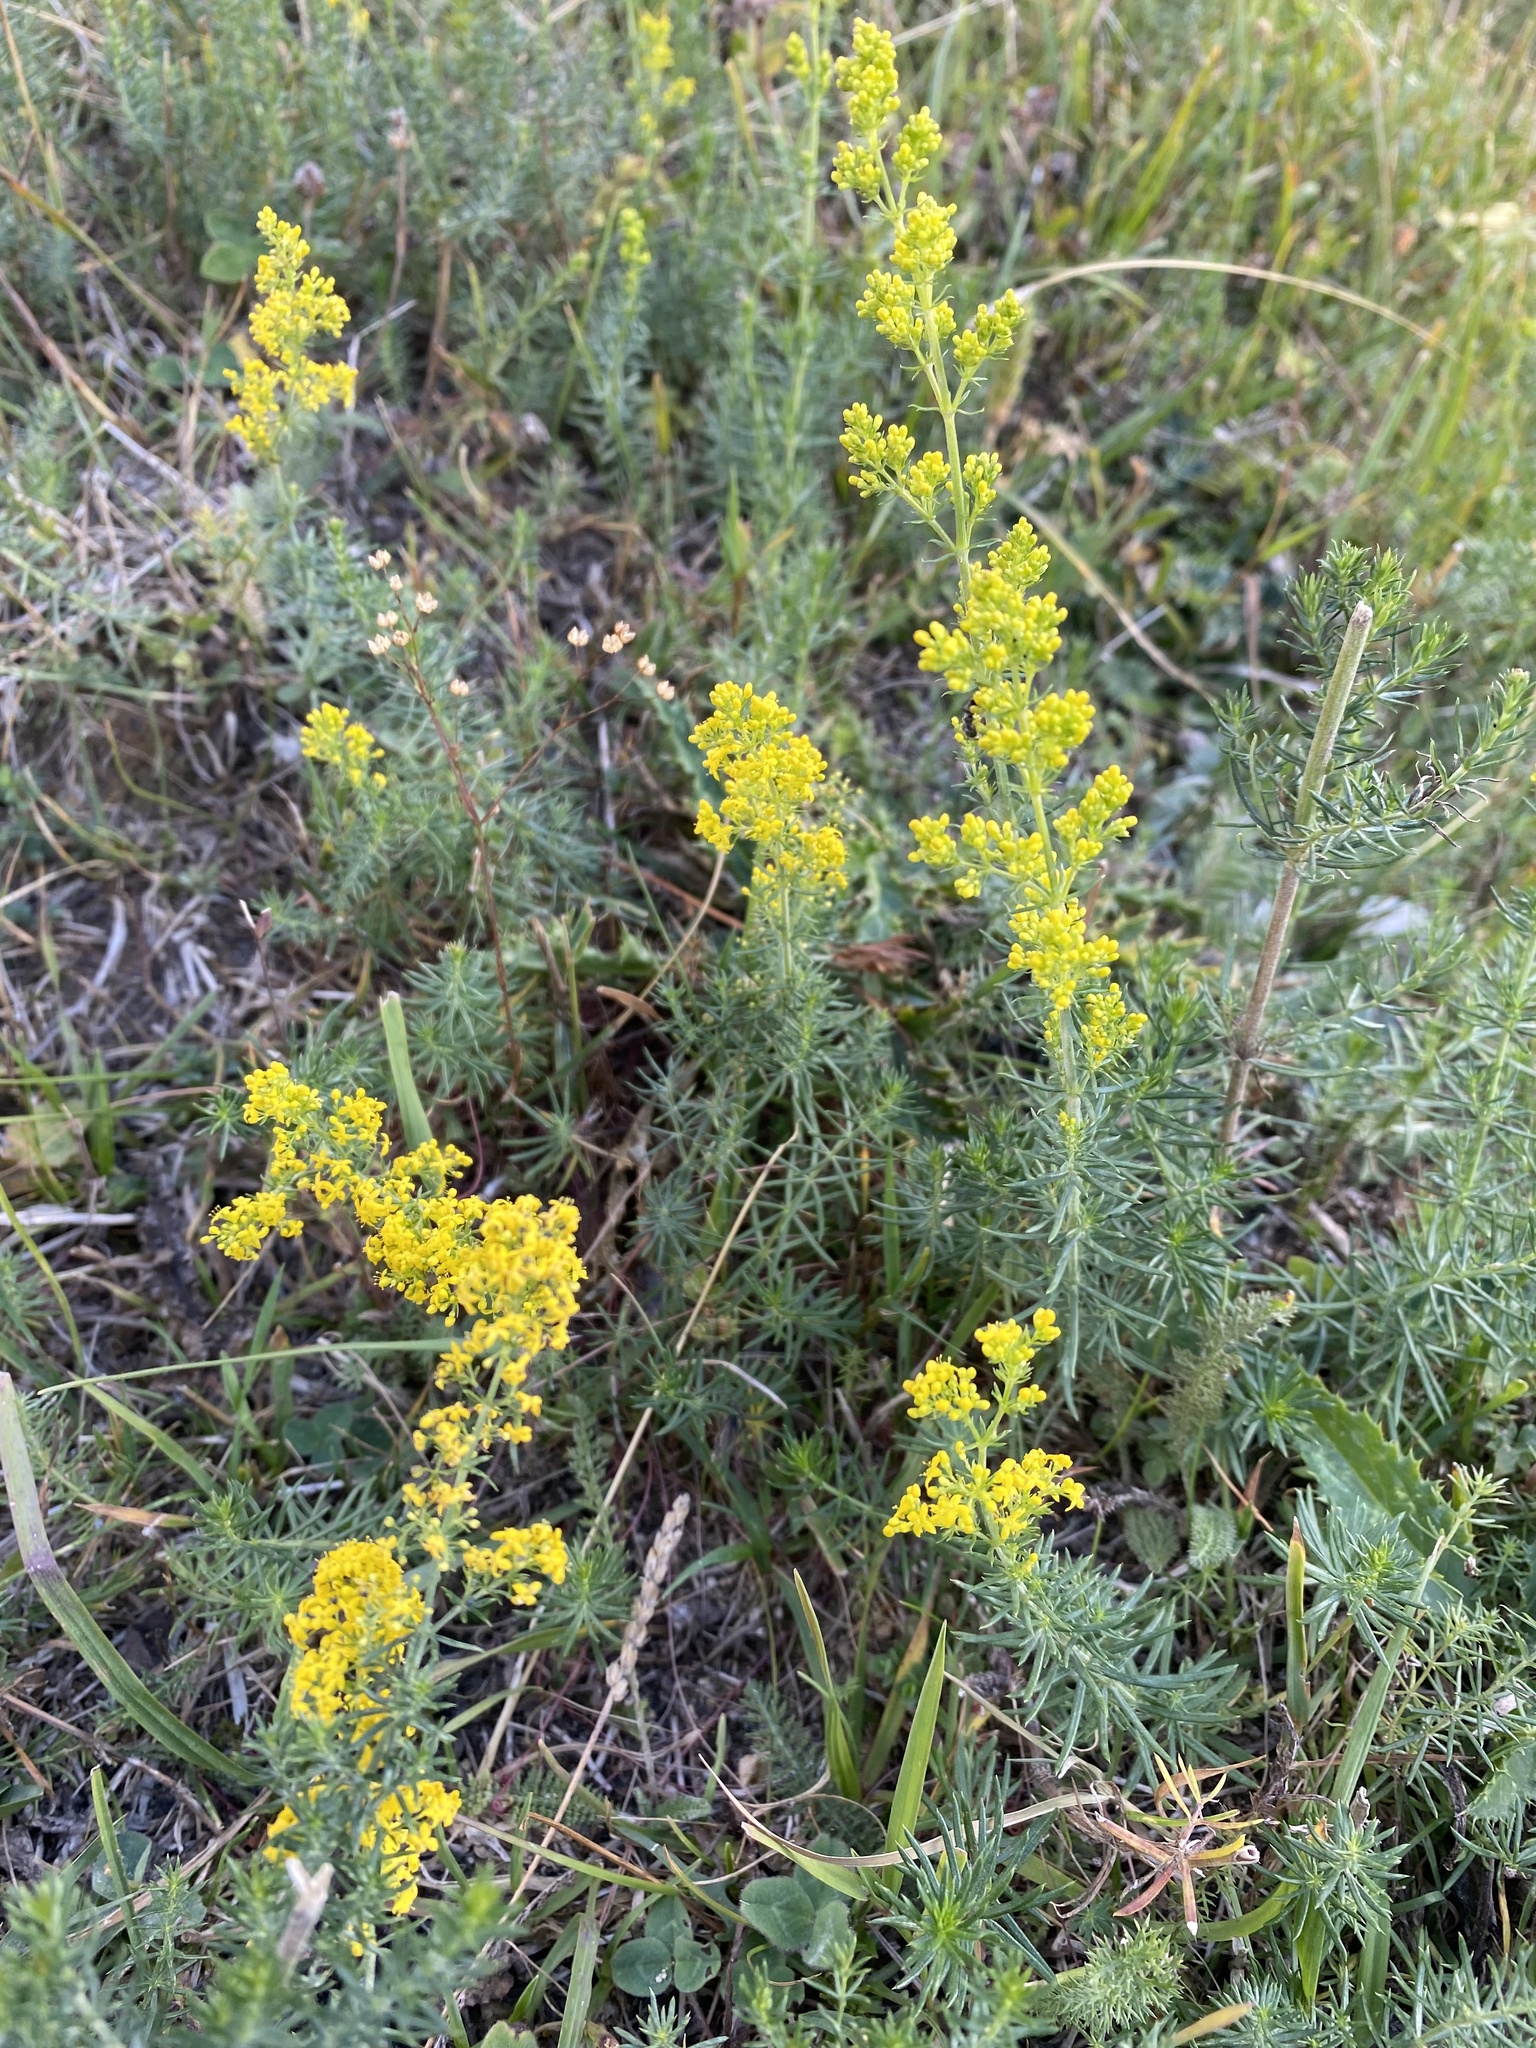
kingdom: Plantae
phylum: Tracheophyta
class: Magnoliopsida
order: Gentianales
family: Rubiaceae
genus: Galium
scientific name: Galium verum
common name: Lady's bedstraw
